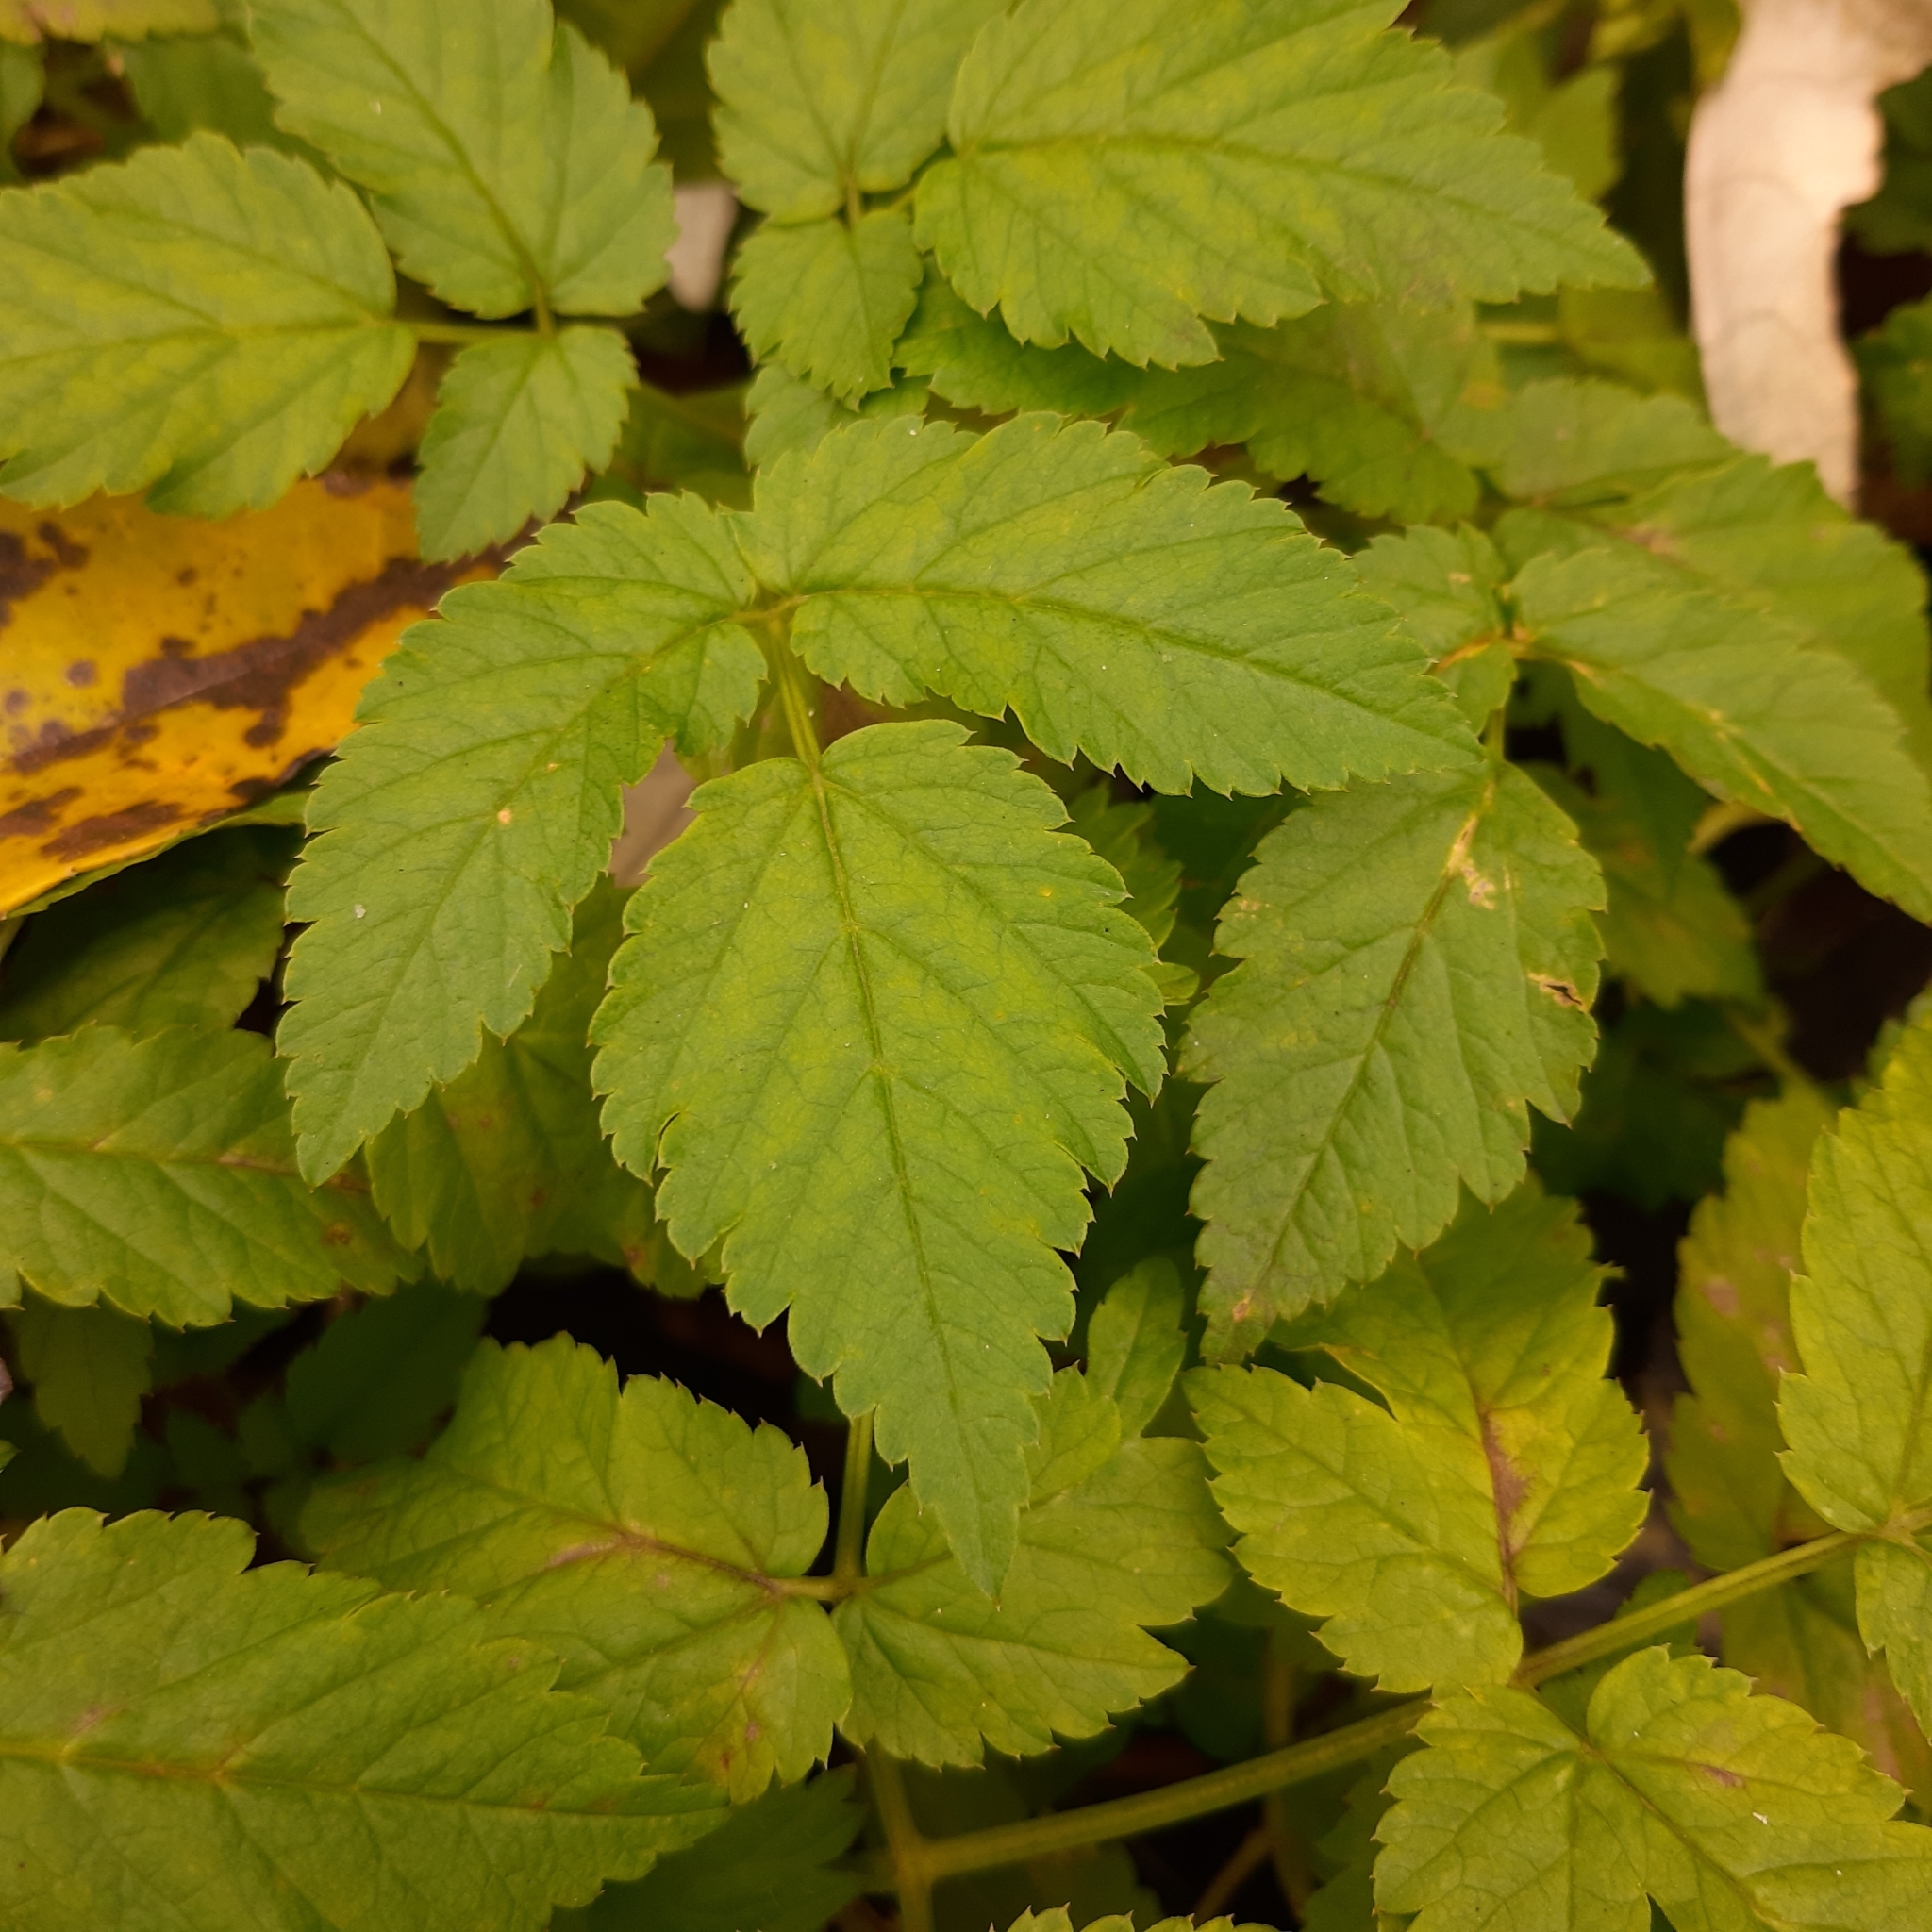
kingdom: Plantae
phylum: Tracheophyta
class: Magnoliopsida
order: Apiales
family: Apiaceae
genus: Aegopodium
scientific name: Aegopodium podagraria
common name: Ground-elder
